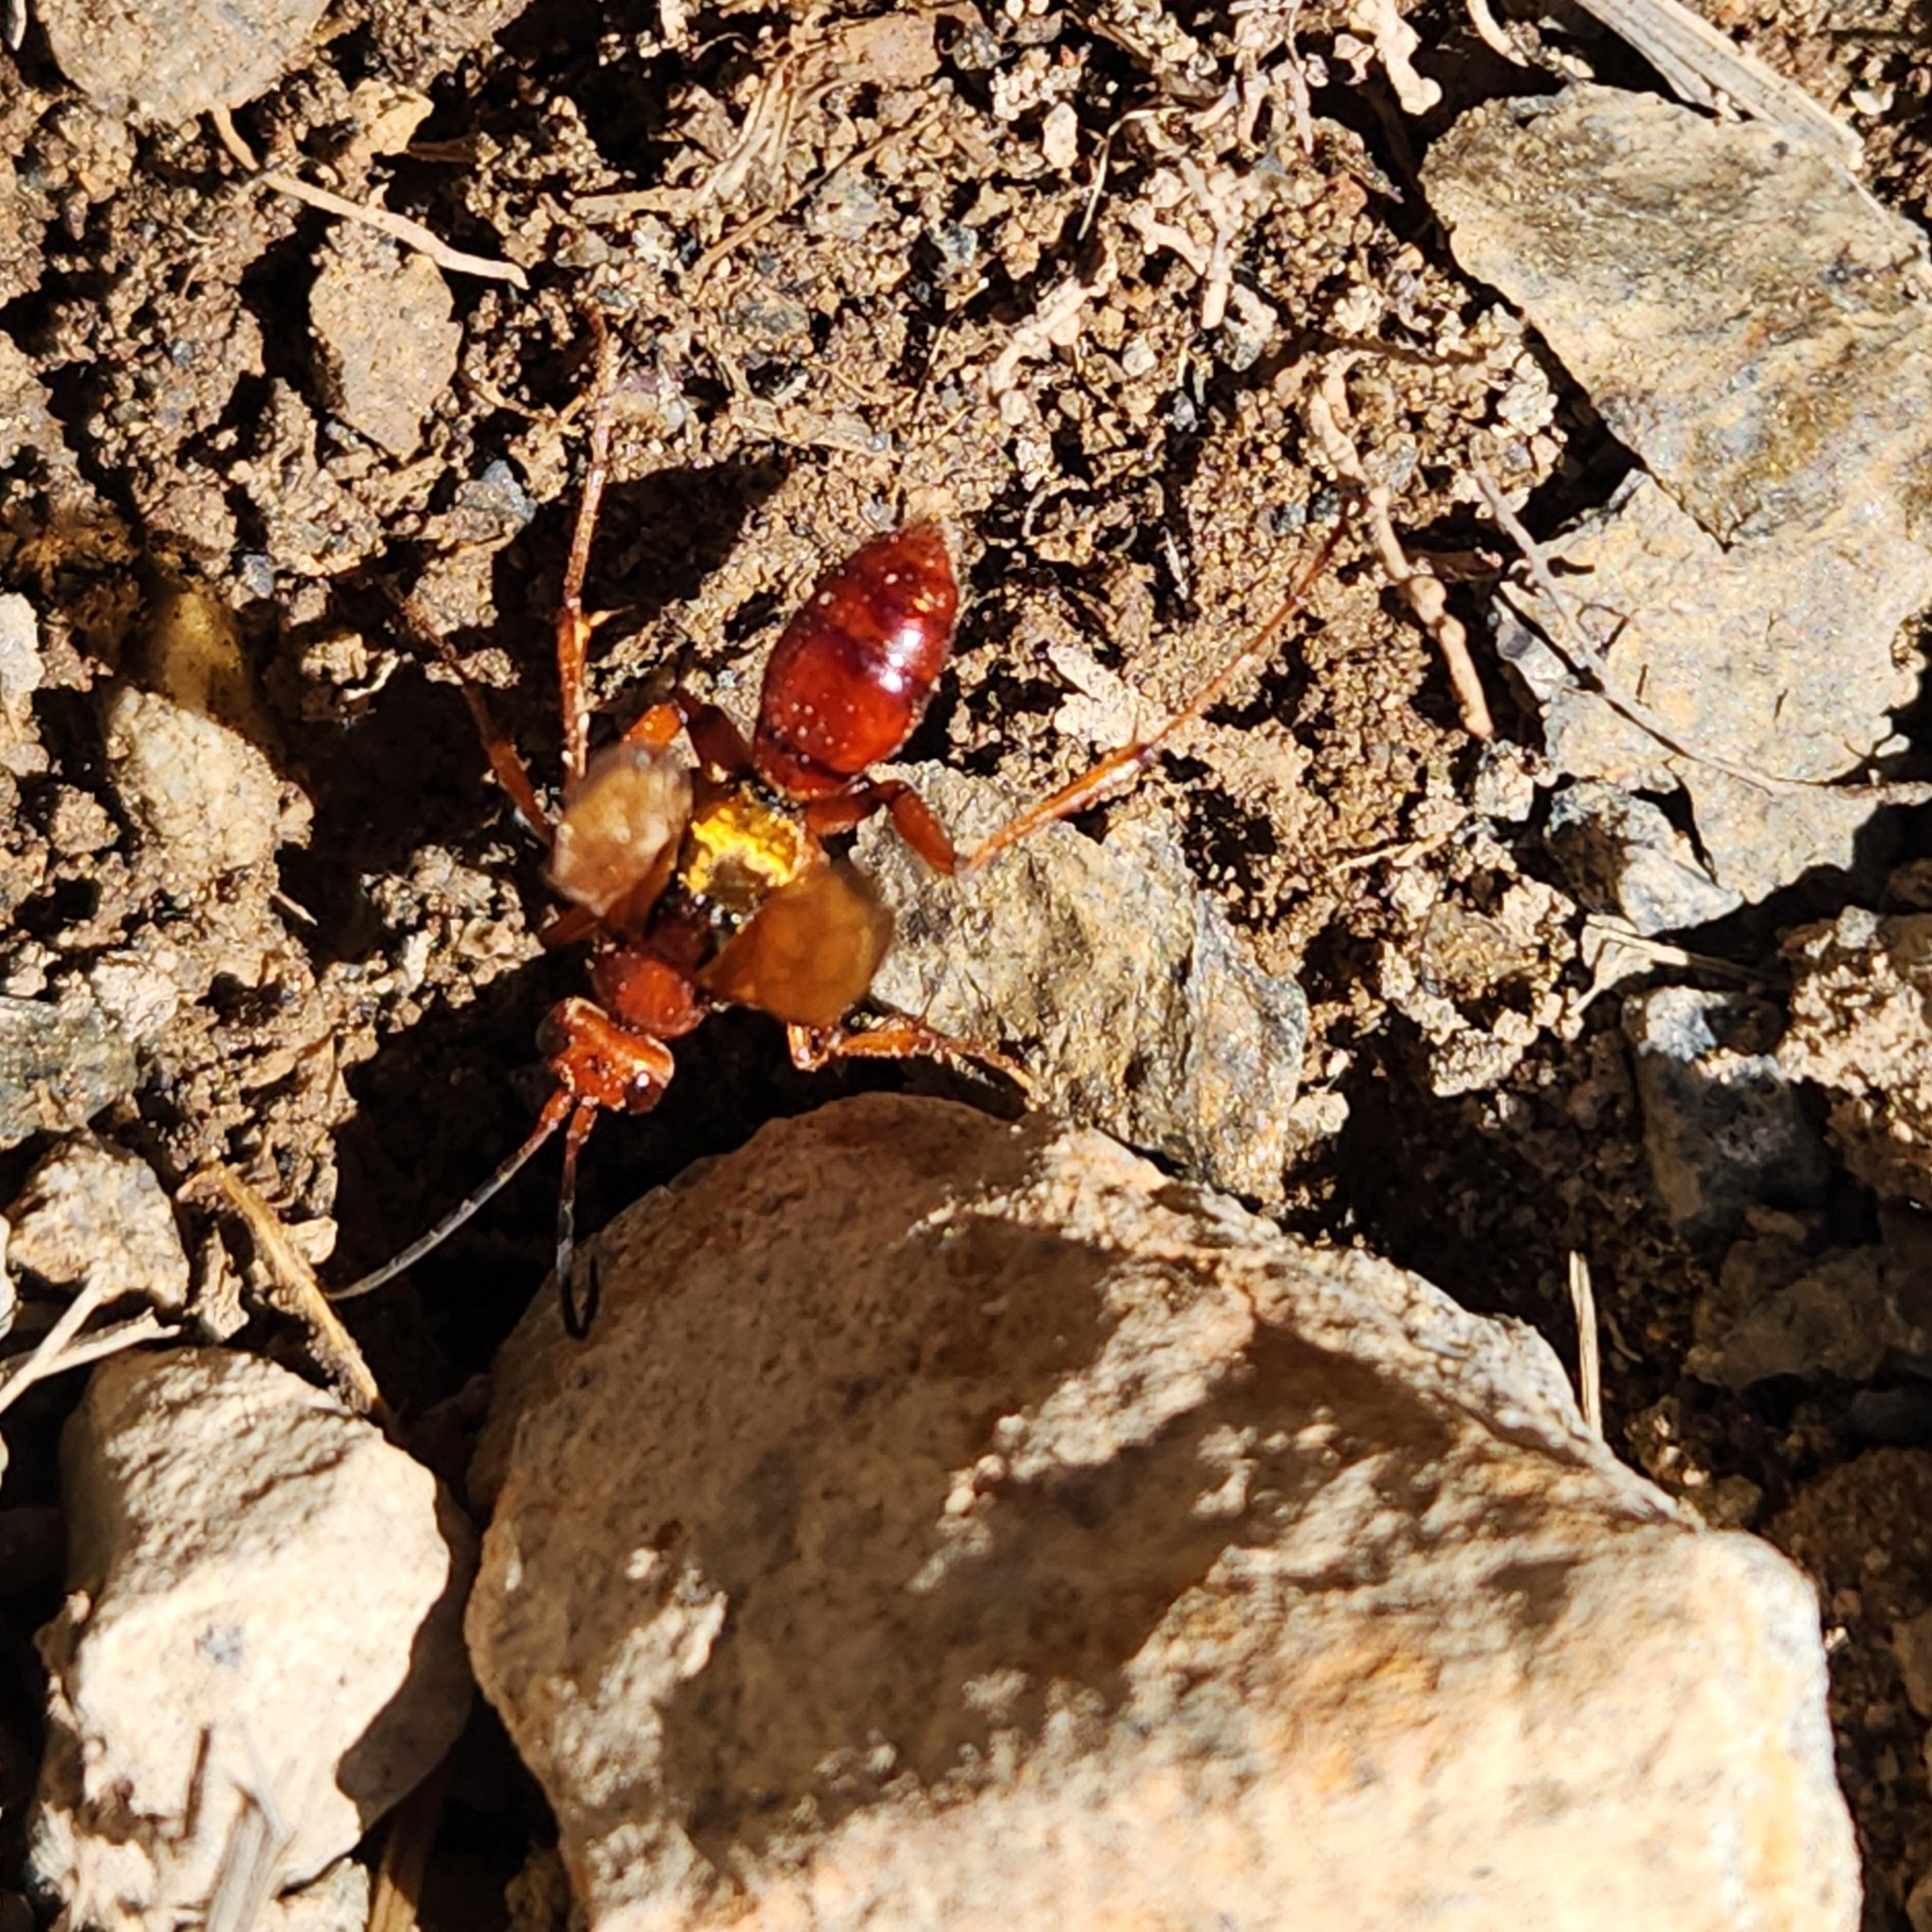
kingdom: Animalia
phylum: Arthropoda
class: Insecta
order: Hymenoptera
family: Pompilidae
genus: Sphictostethus
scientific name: Sphictostethus nitidus
